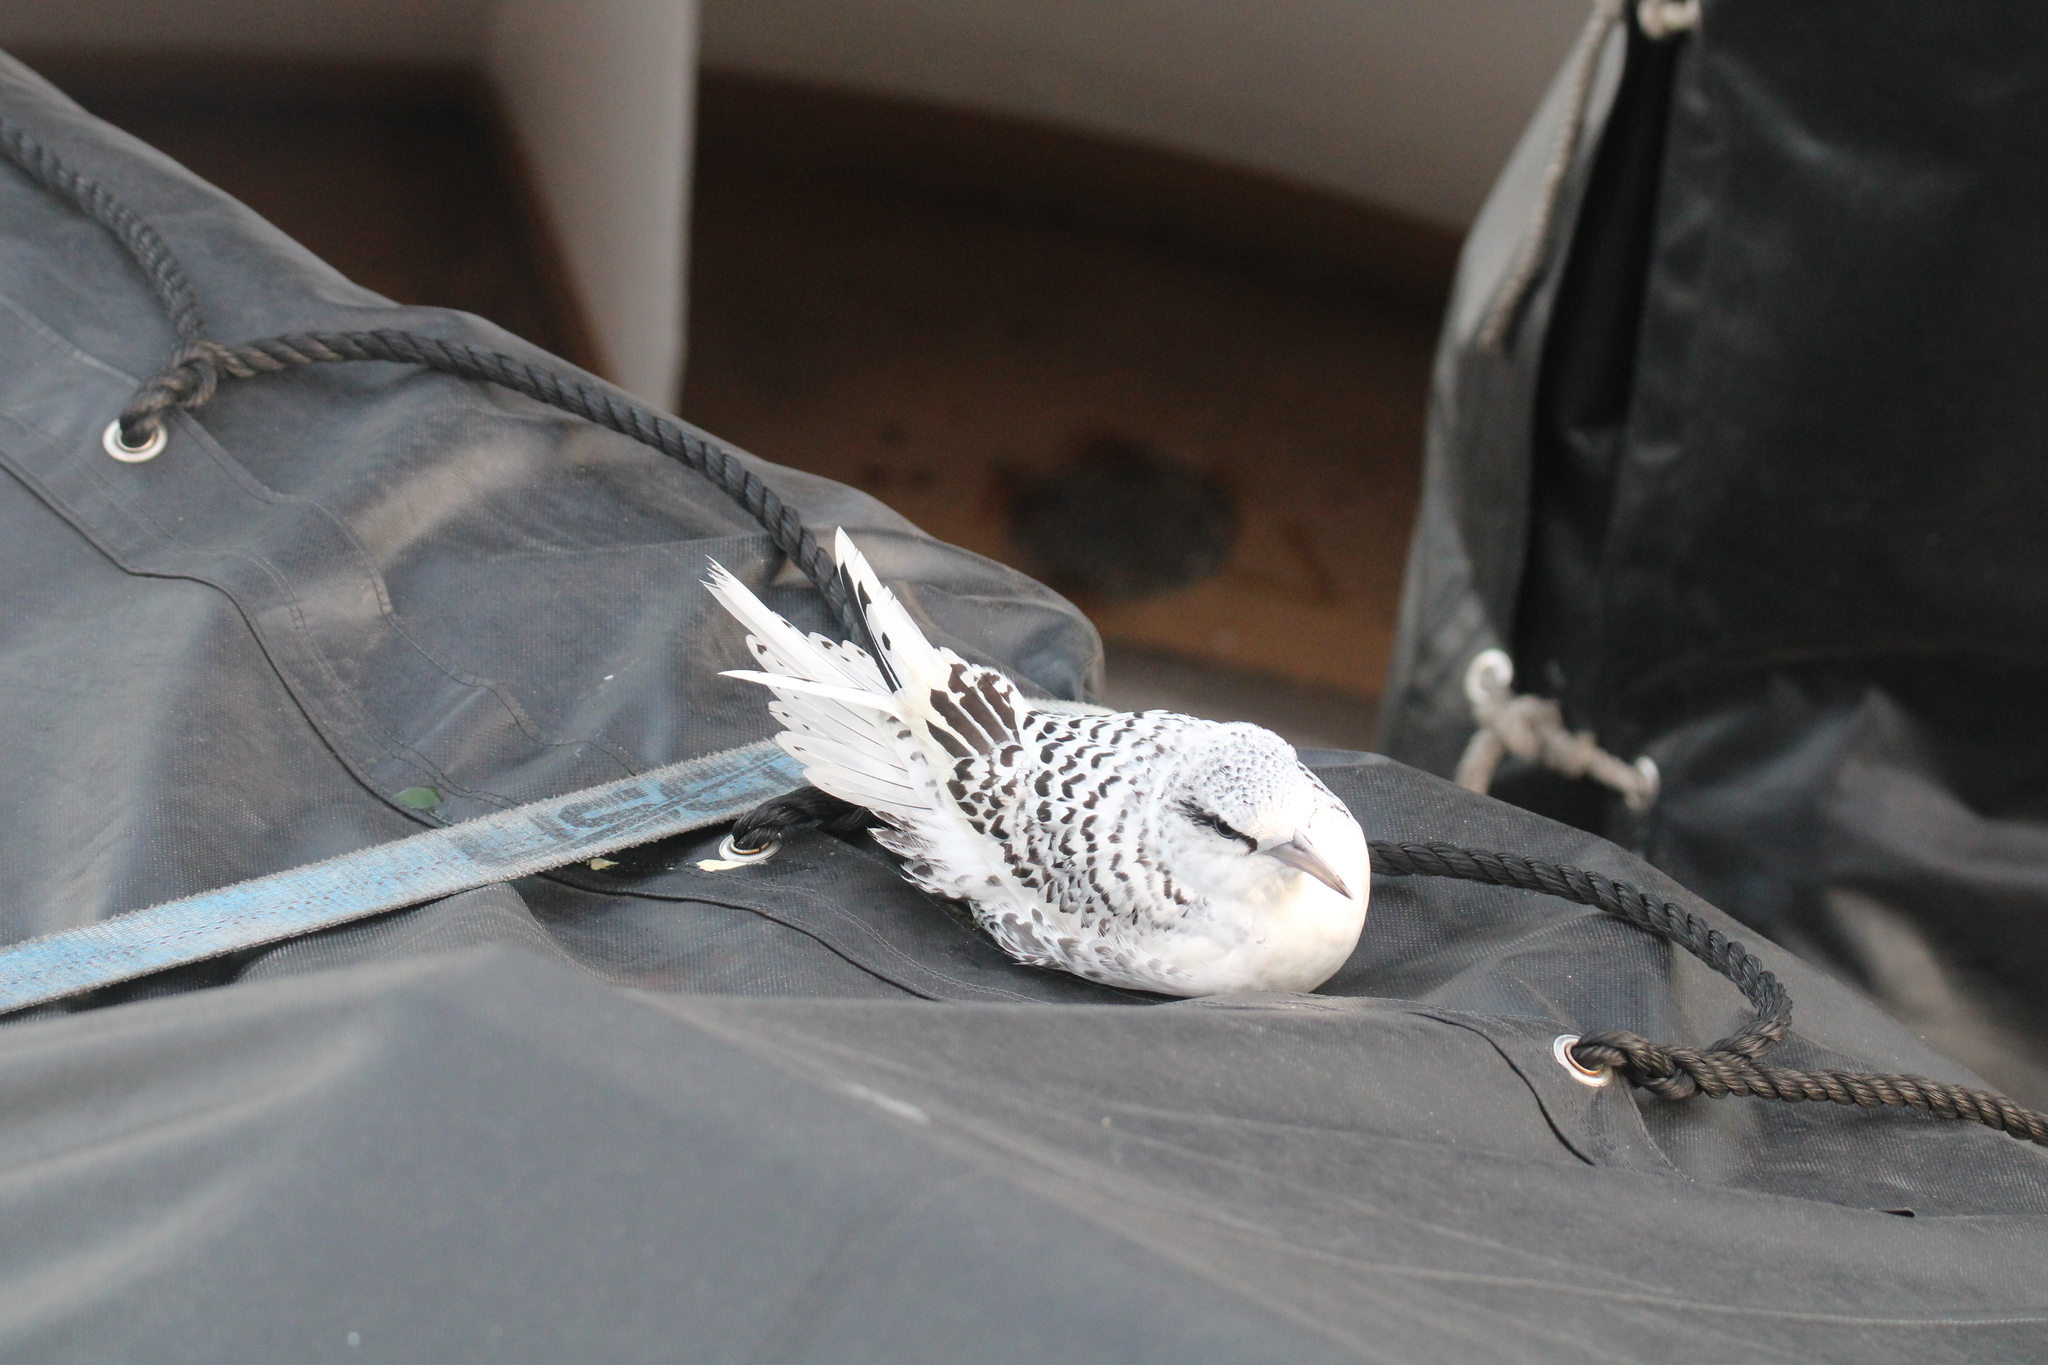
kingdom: Animalia
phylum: Chordata
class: Aves
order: Phaethontiformes
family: Phaethontidae
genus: Phaethon
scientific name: Phaethon lepturus
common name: White-tailed tropicbird
